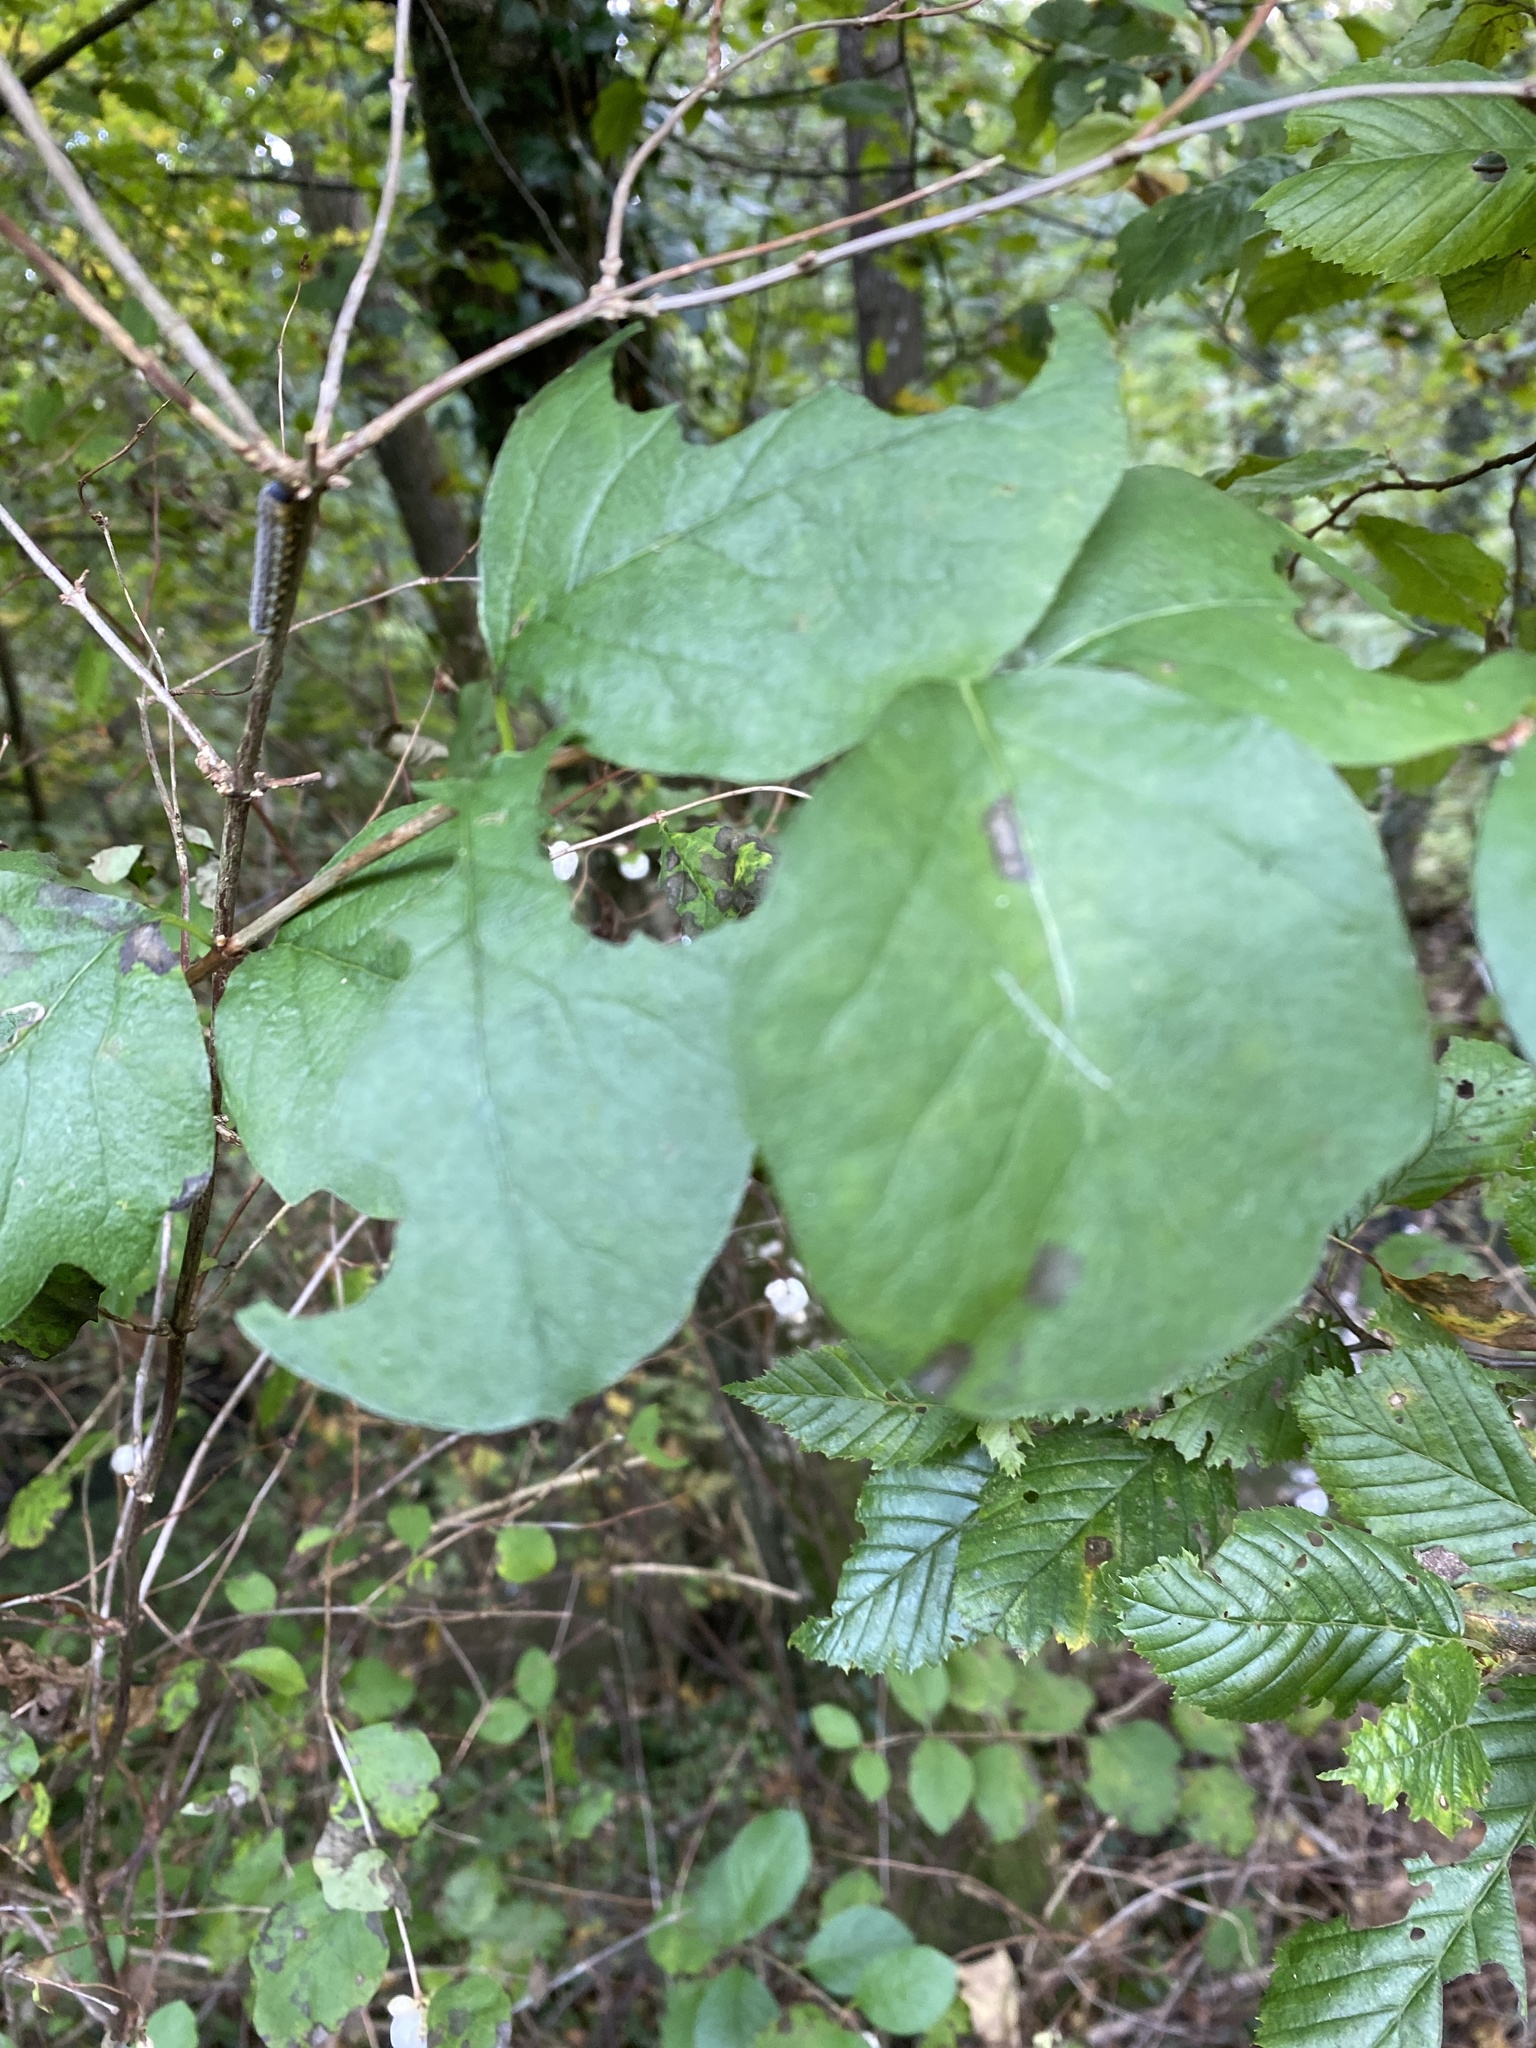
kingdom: Plantae
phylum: Tracheophyta
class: Magnoliopsida
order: Dipsacales
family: Caprifoliaceae
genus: Symphoricarpos
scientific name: Symphoricarpos albus
